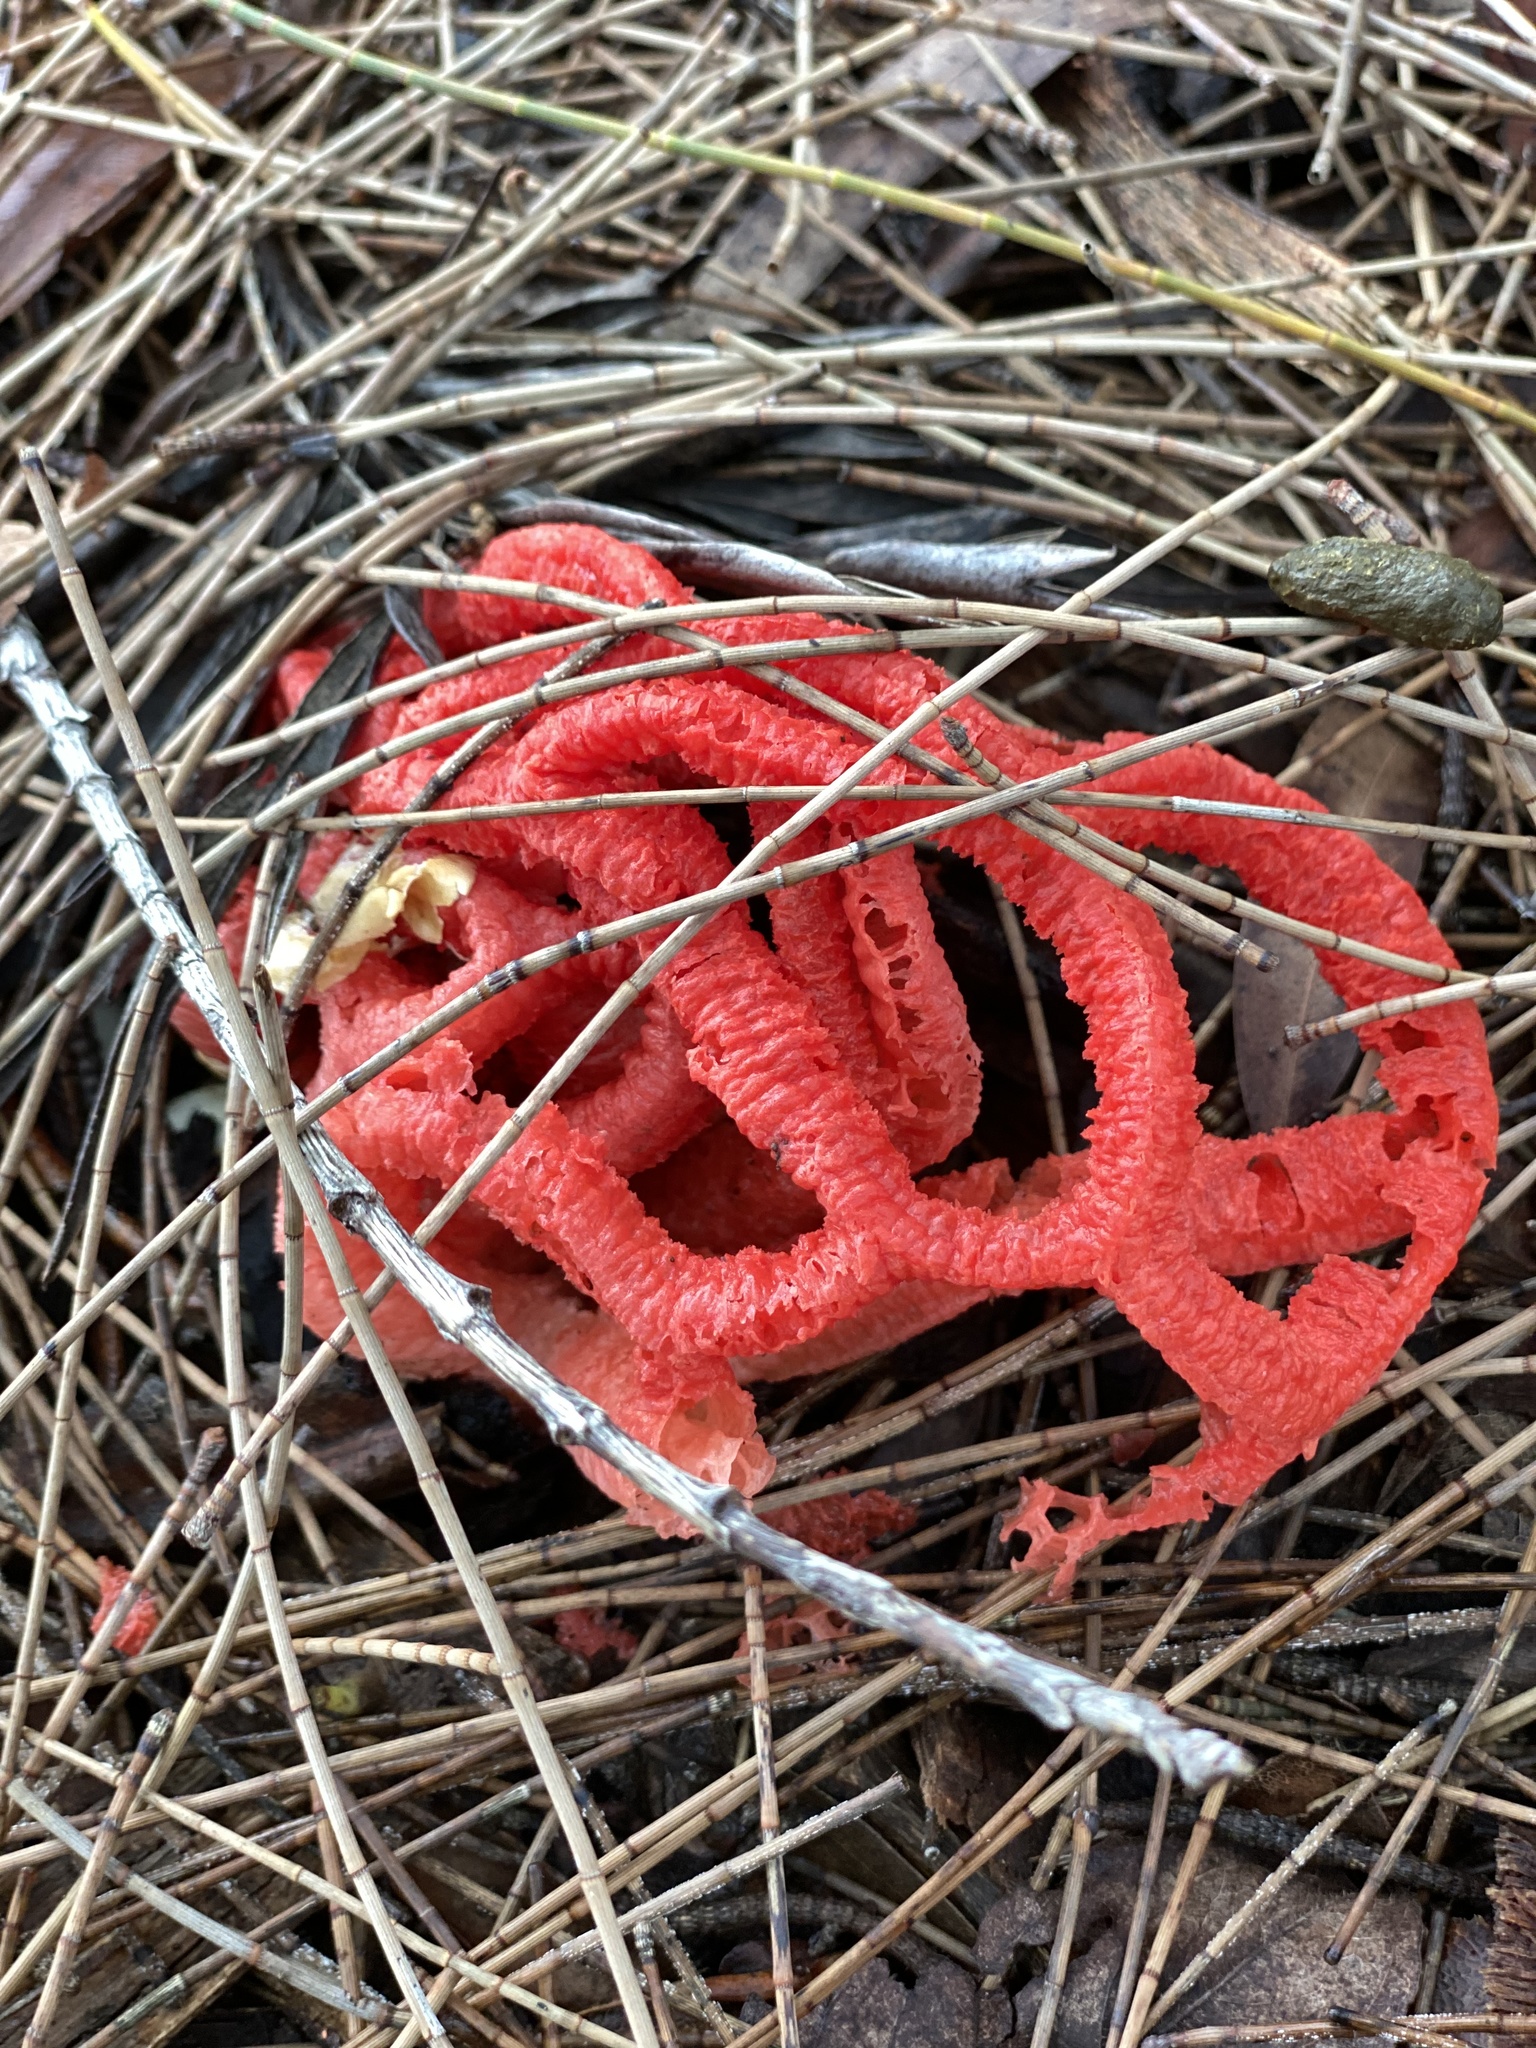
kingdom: Fungi
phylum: Basidiomycota
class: Agaricomycetes
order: Phallales
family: Phallaceae
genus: Colus
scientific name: Colus pusillus
